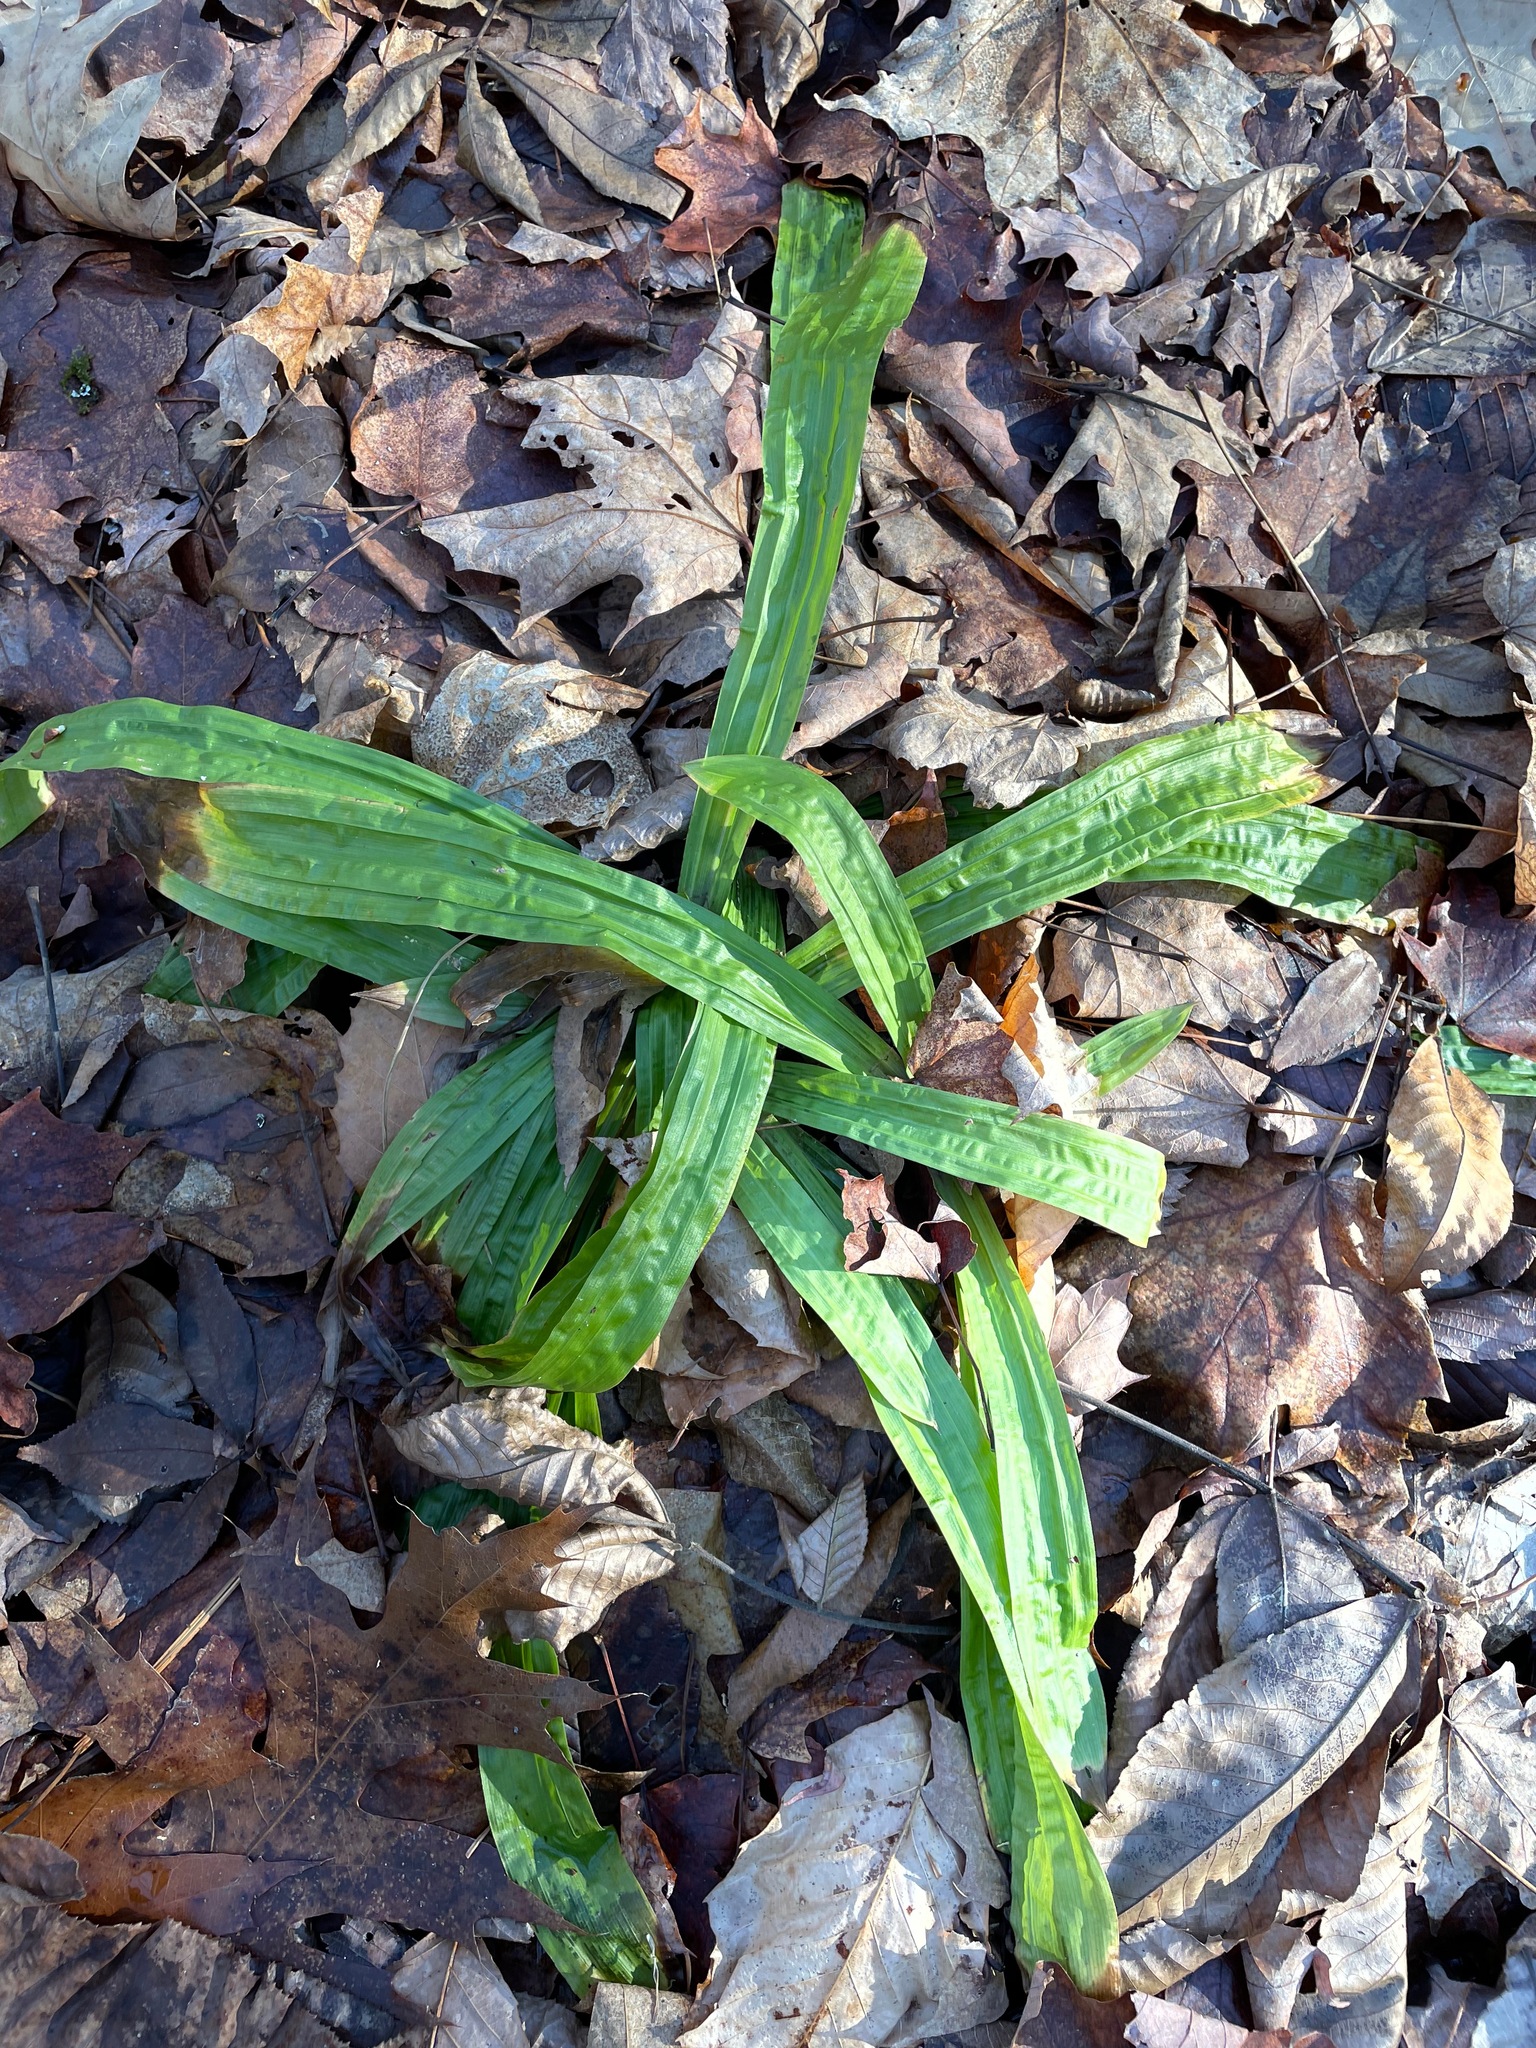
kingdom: Plantae
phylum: Tracheophyta
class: Liliopsida
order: Poales
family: Cyperaceae
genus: Carex
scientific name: Carex plantaginea
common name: Plantain-leaved sedge
